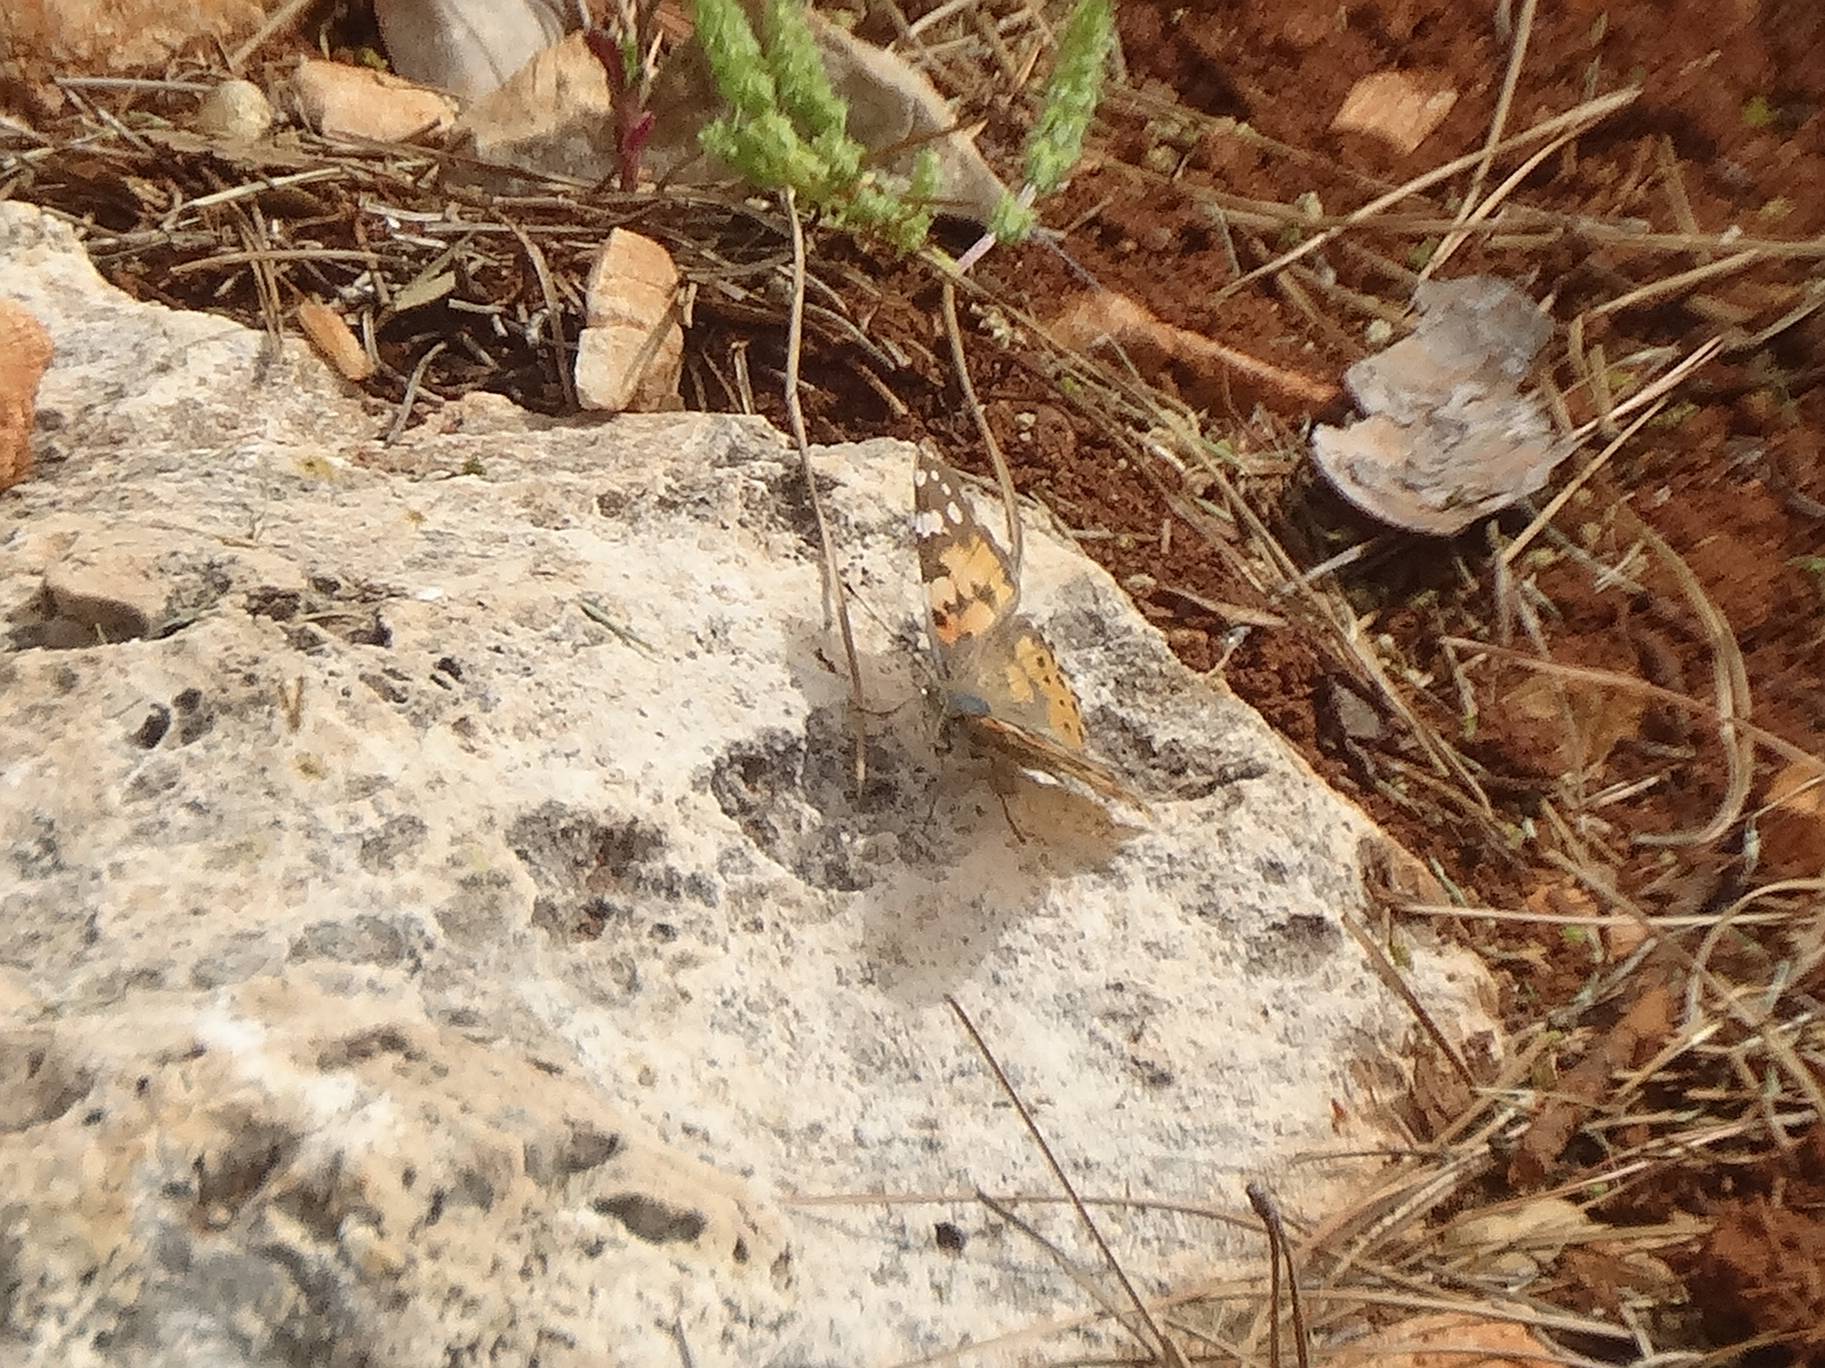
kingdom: Animalia
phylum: Arthropoda
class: Insecta
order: Lepidoptera
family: Nymphalidae
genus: Vanessa
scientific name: Vanessa cardui
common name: Painted lady
